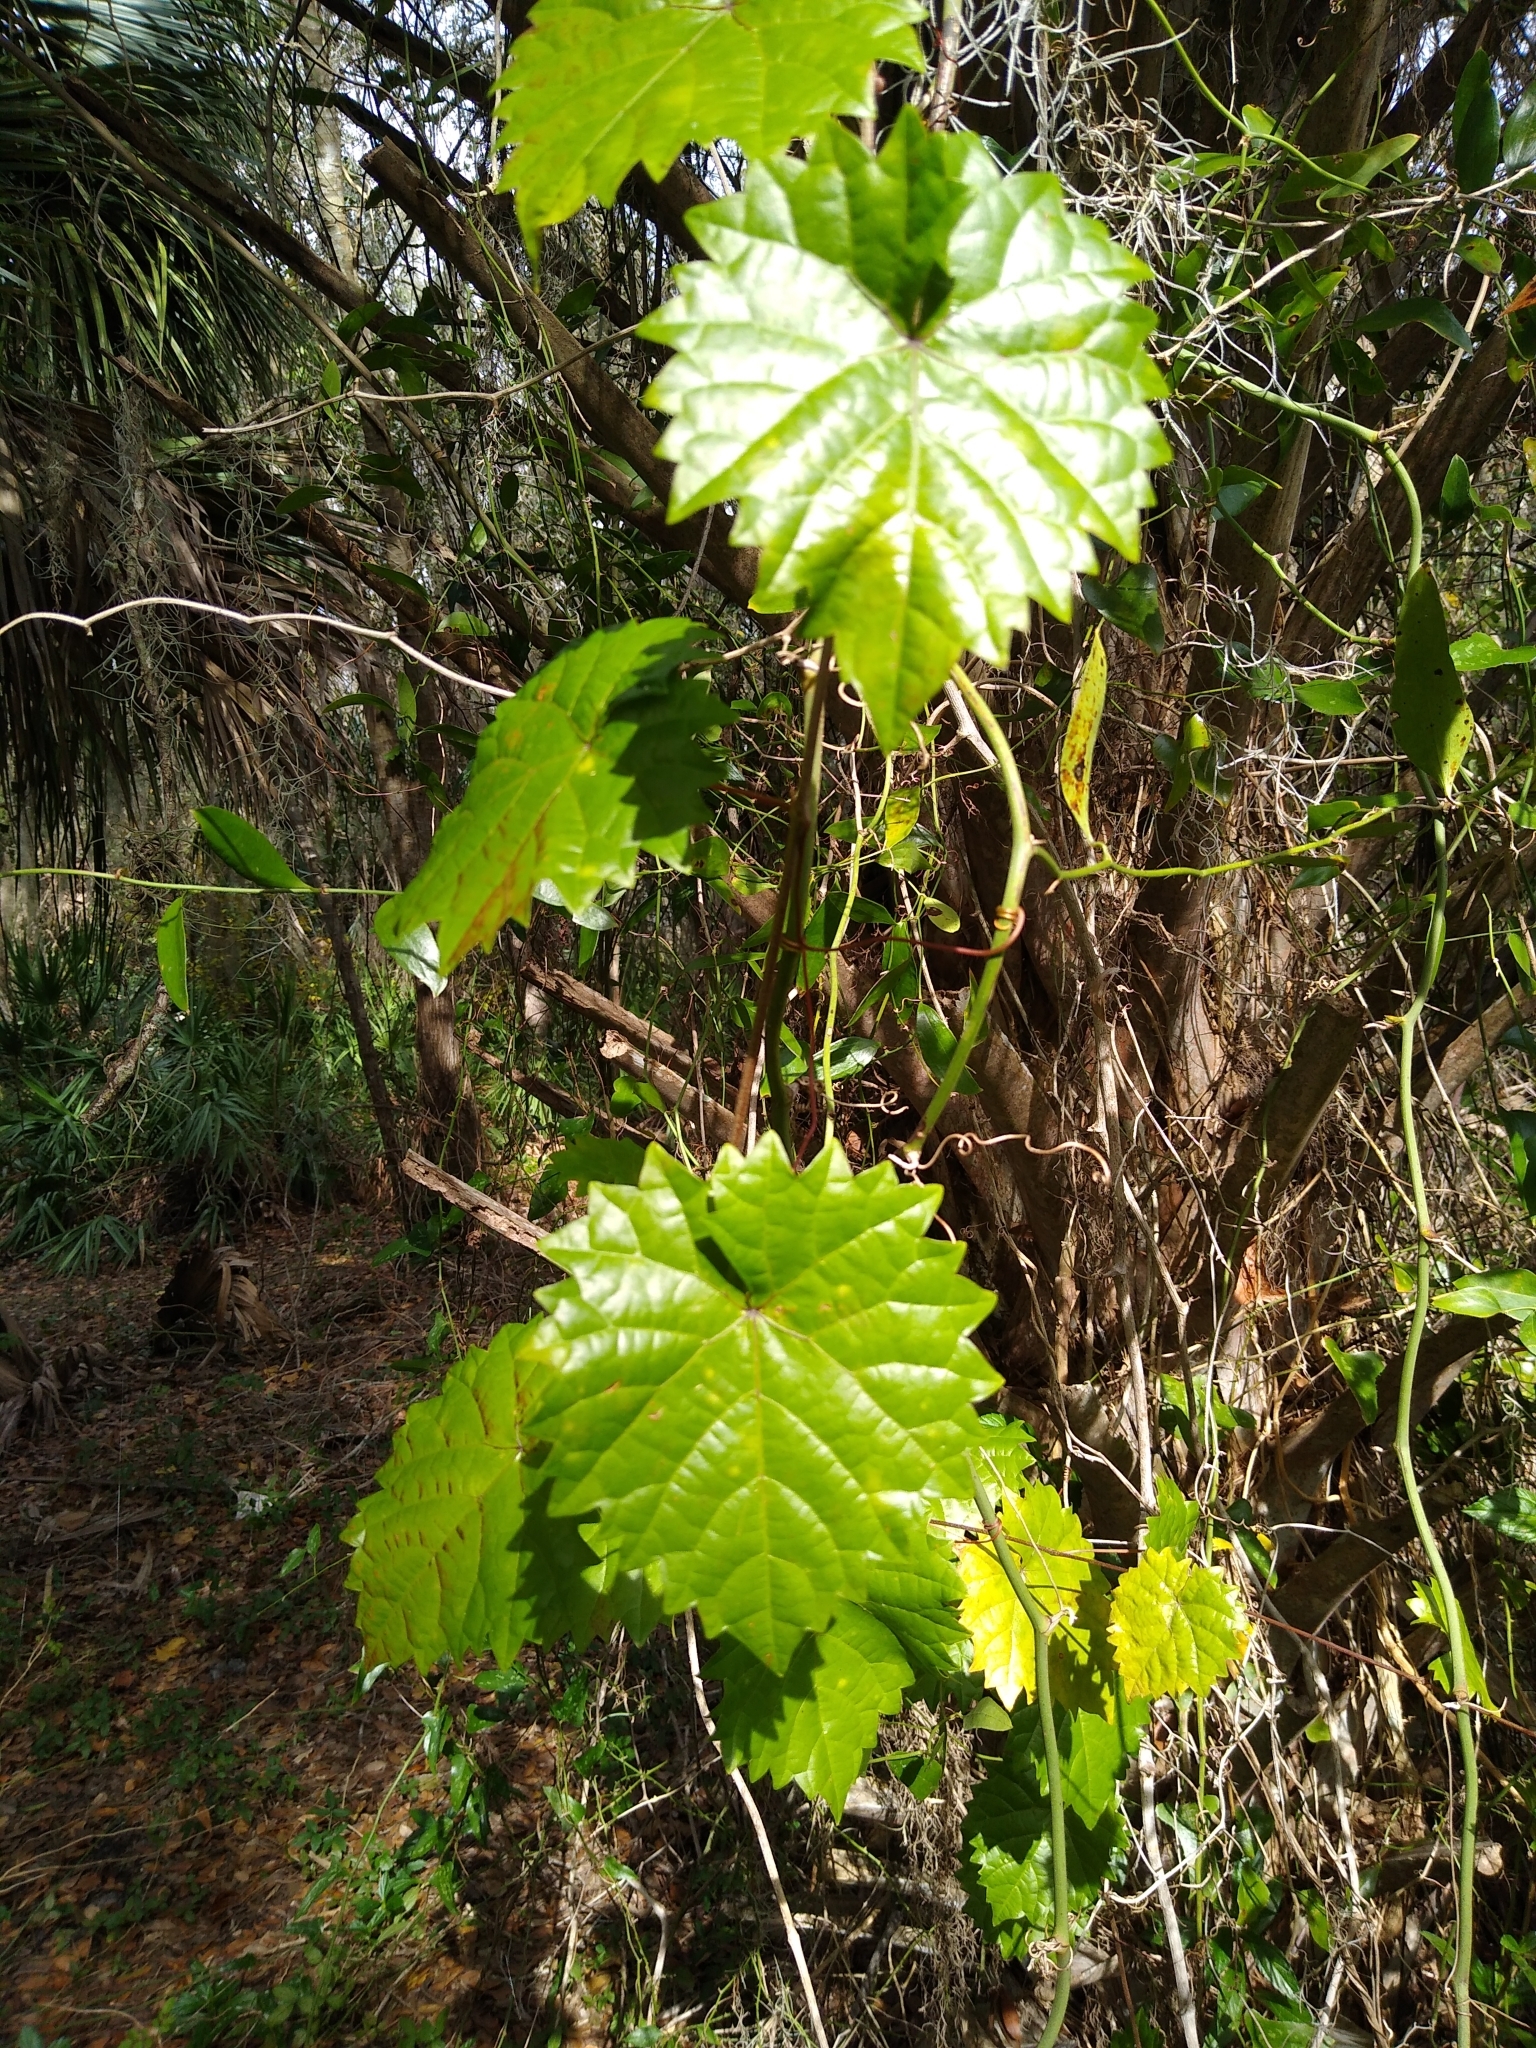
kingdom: Plantae
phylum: Tracheophyta
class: Magnoliopsida
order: Vitales
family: Vitaceae
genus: Vitis
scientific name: Vitis rotundifolia
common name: Muscadine grape
